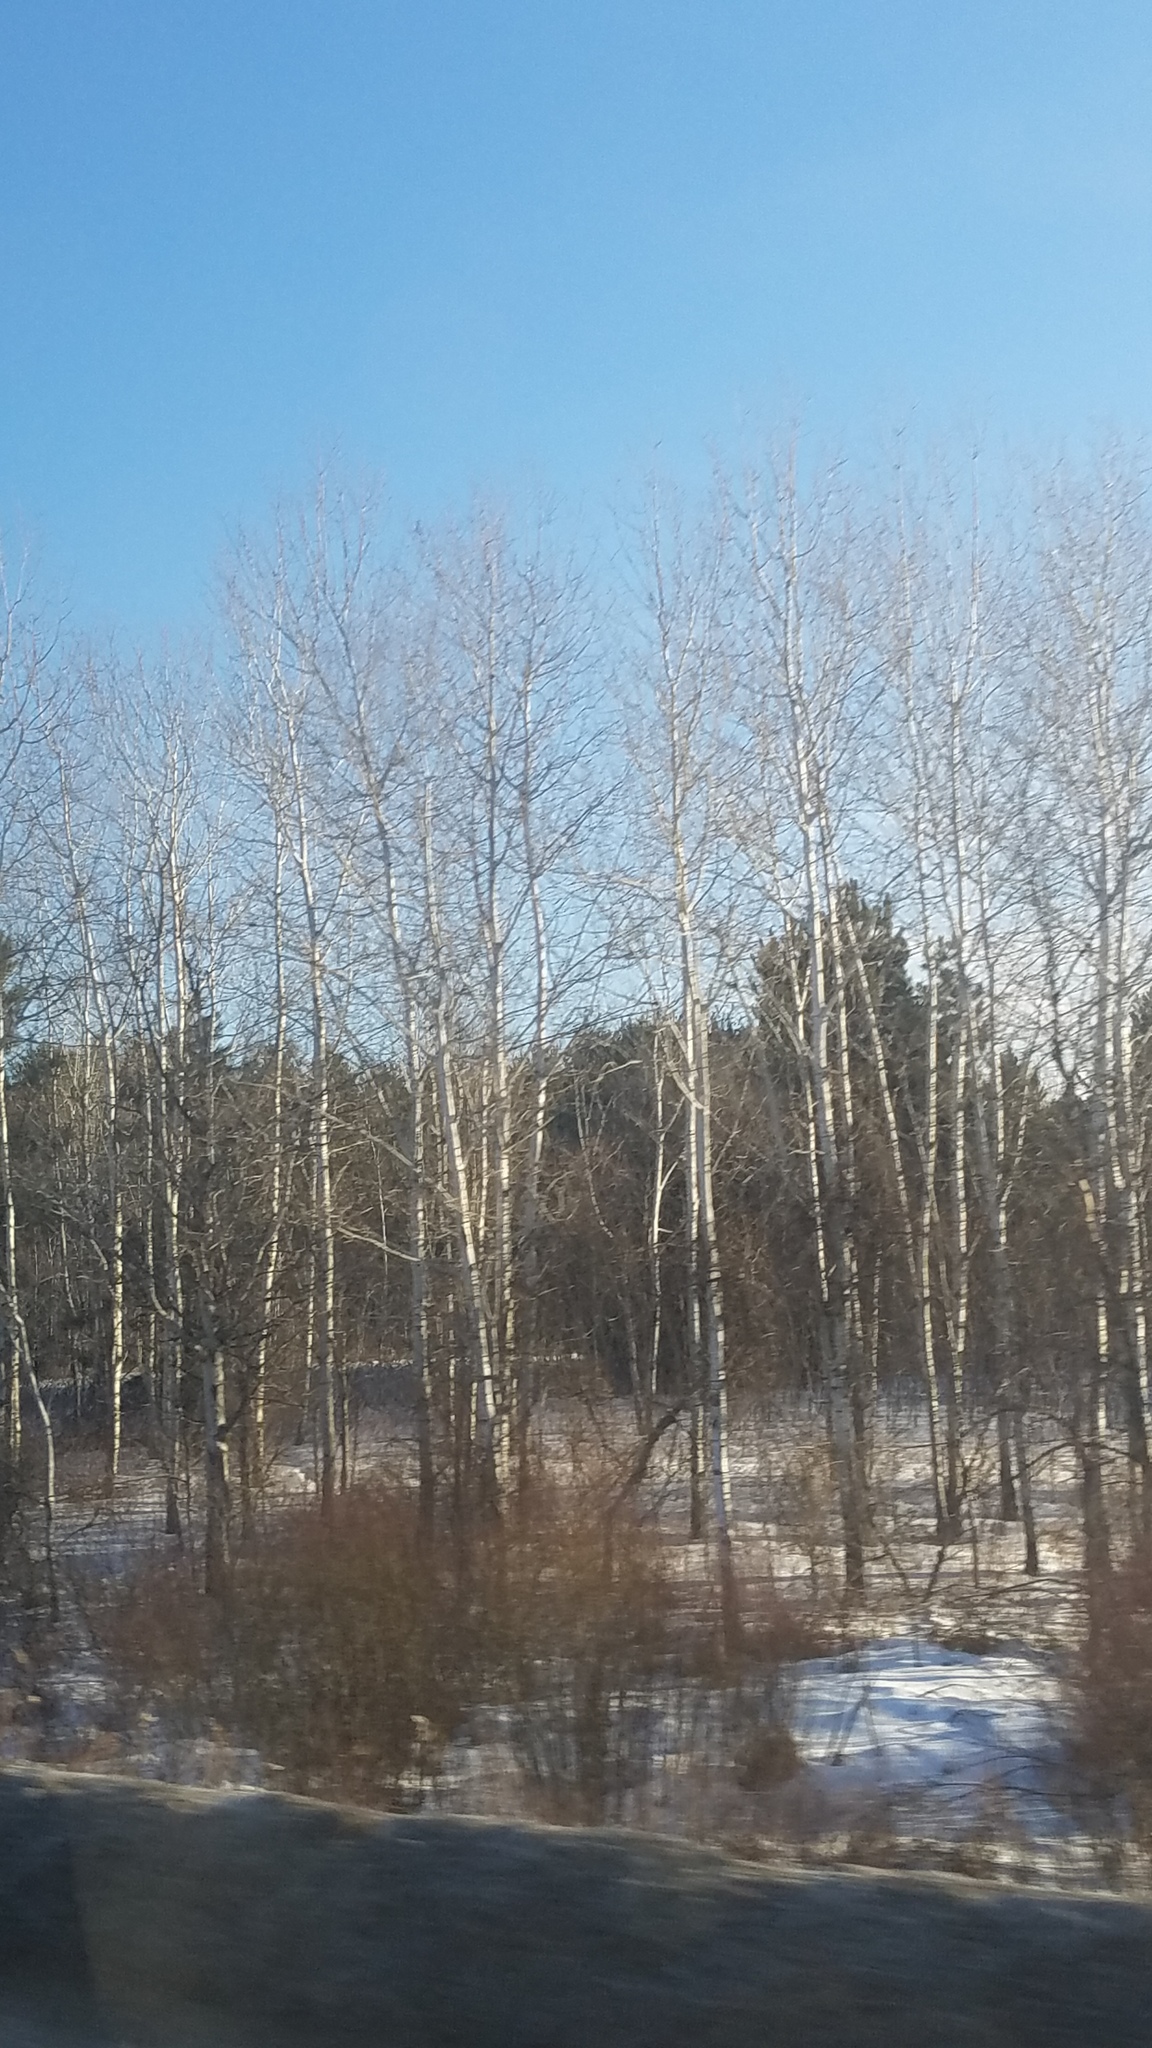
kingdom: Plantae
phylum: Tracheophyta
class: Magnoliopsida
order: Malpighiales
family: Salicaceae
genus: Populus
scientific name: Populus tremuloides
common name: Quaking aspen
